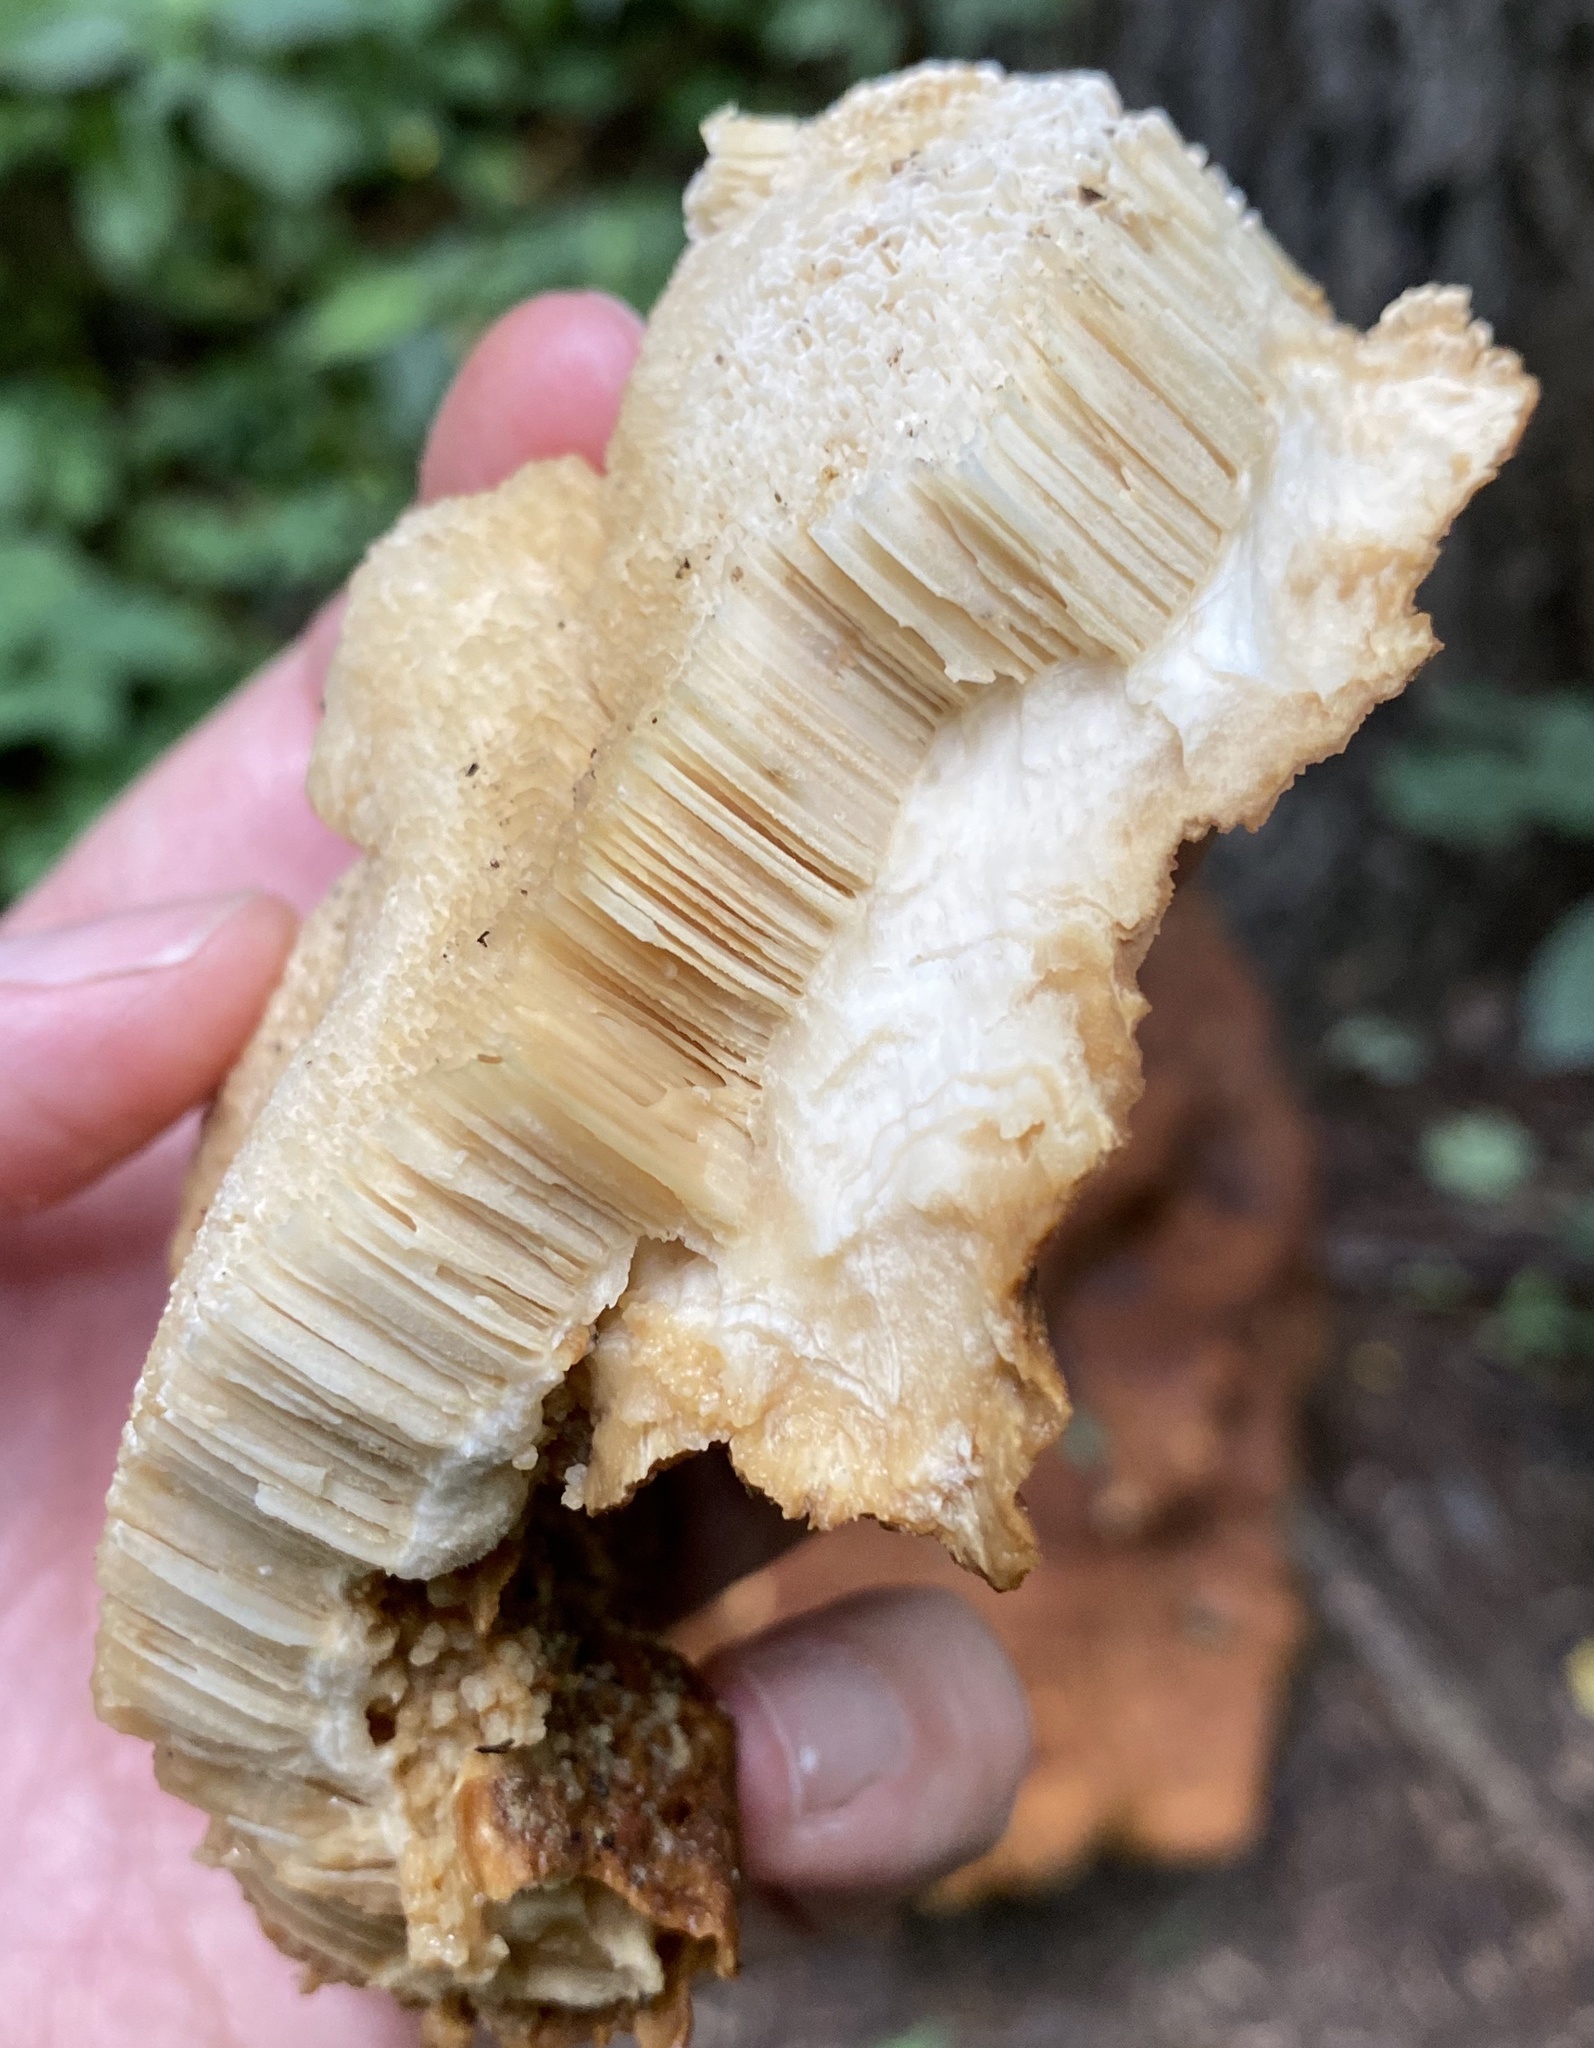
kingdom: Fungi
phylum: Basidiomycota
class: Agaricomycetes
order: Russulales
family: Bondarzewiaceae
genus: Bondarzewia
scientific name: Bondarzewia berkeleyi
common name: Berkeley's polypore
